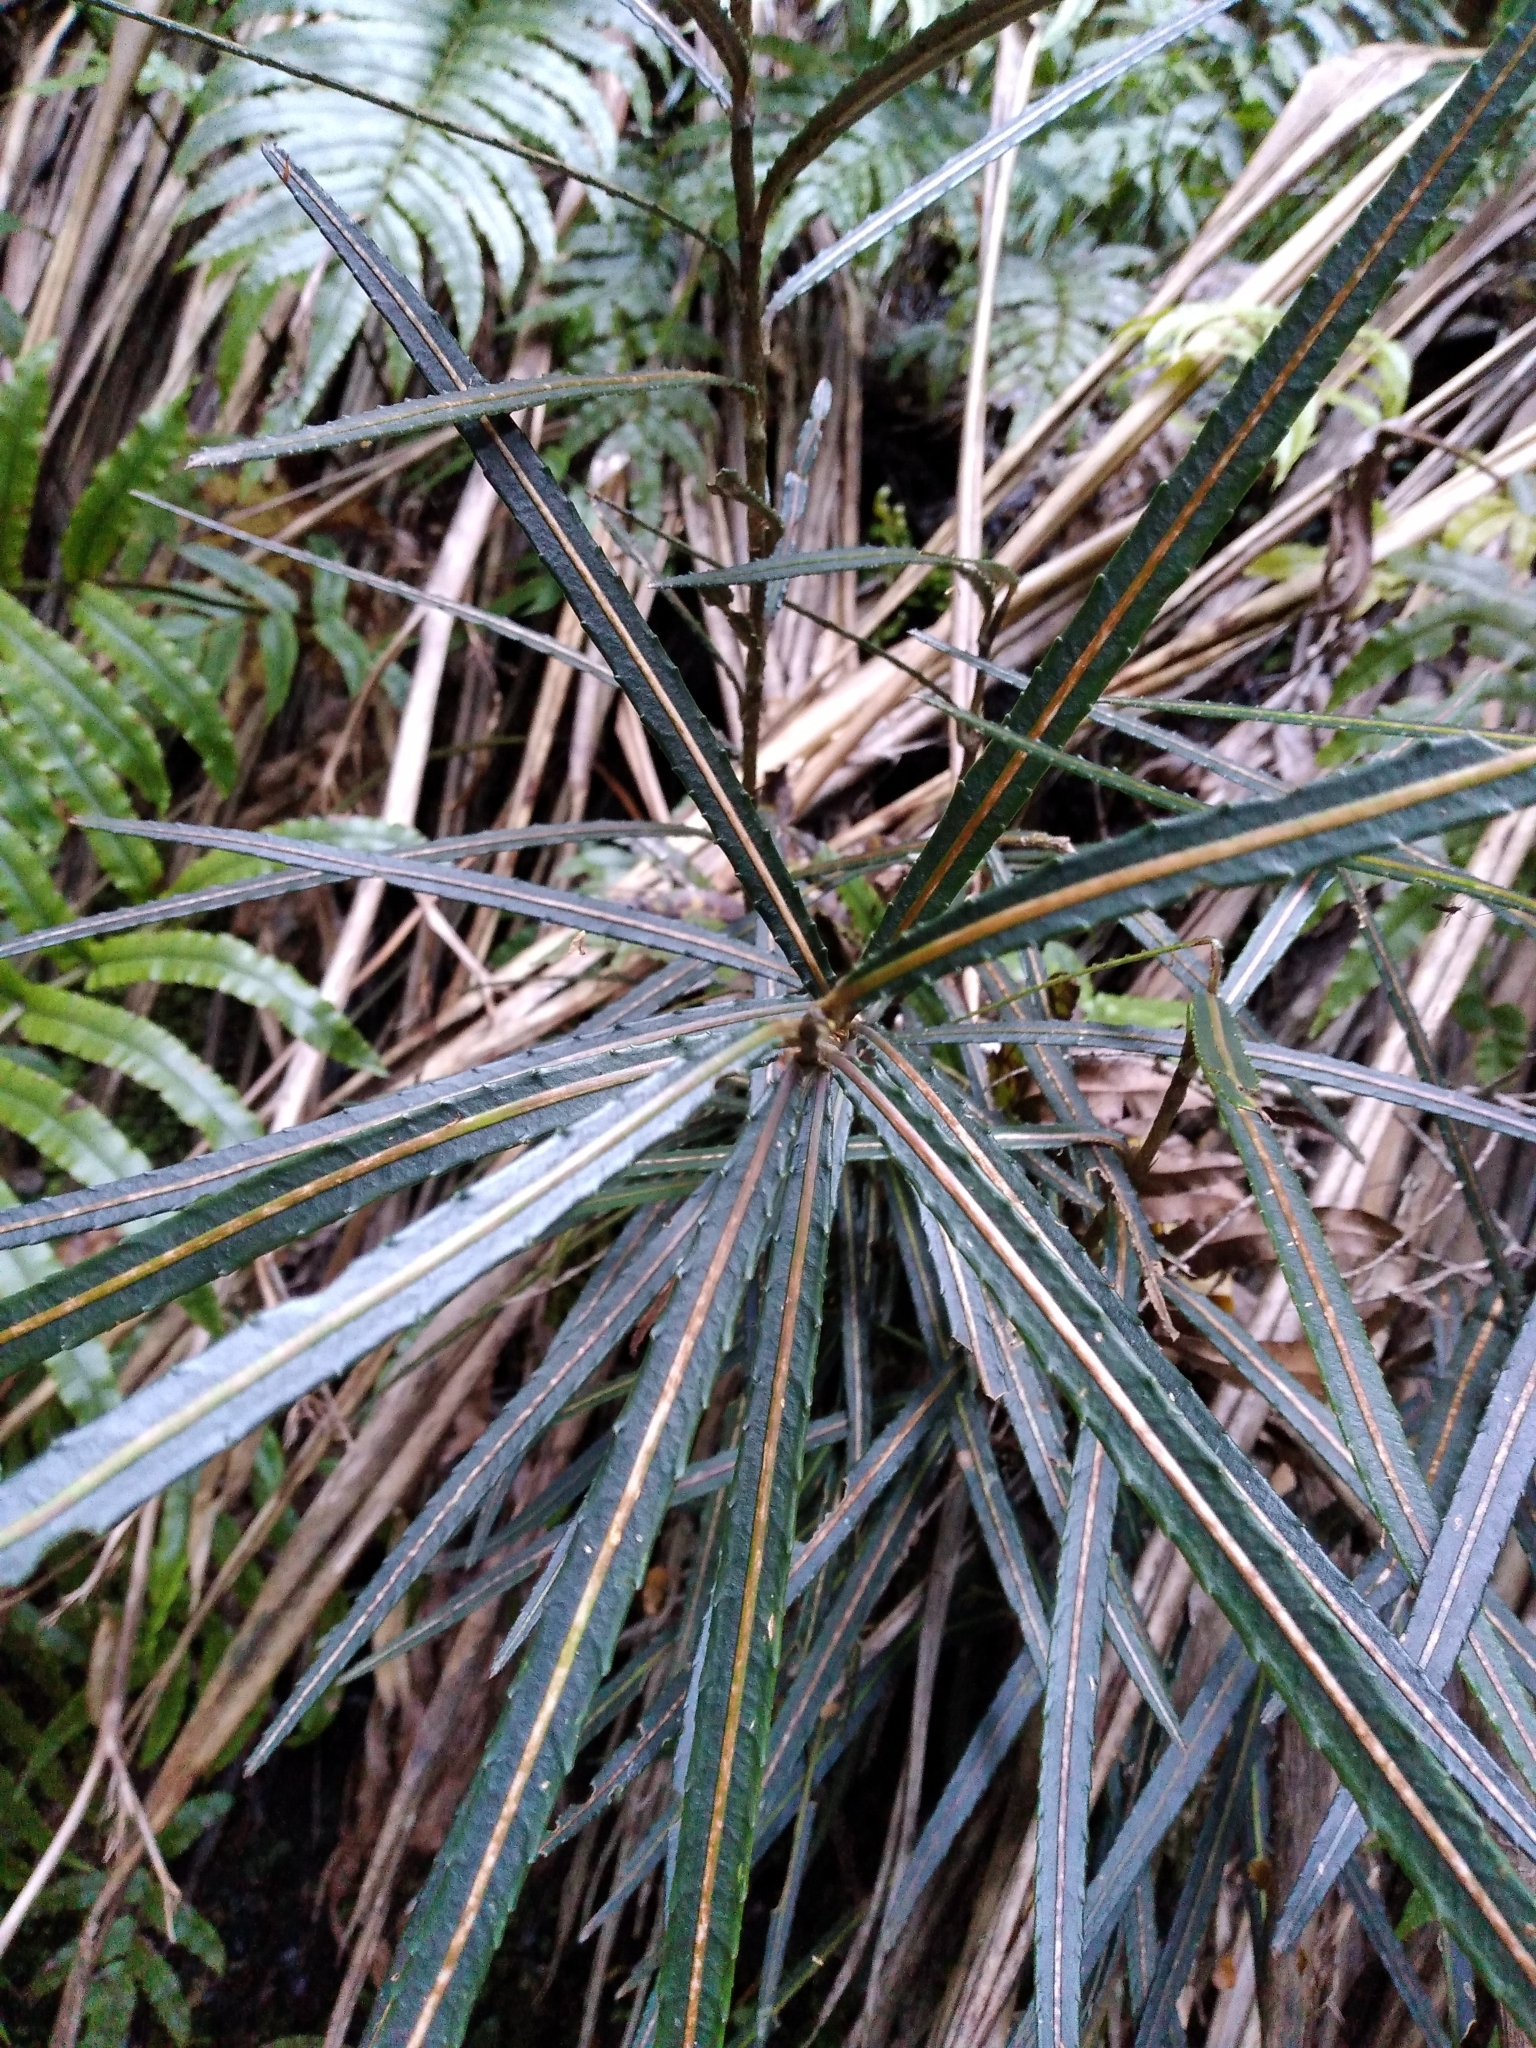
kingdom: Plantae
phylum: Tracheophyta
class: Magnoliopsida
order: Apiales
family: Araliaceae
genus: Pseudopanax
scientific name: Pseudopanax linearis
